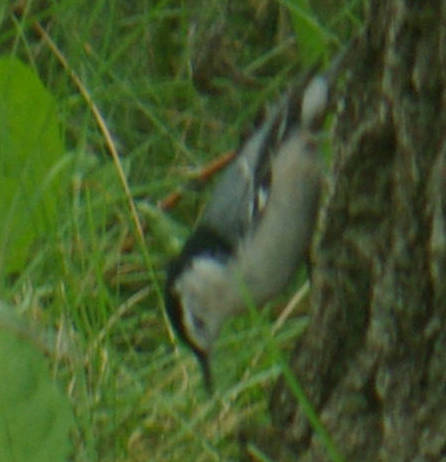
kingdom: Animalia
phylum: Chordata
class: Aves
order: Passeriformes
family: Sittidae
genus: Sitta
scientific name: Sitta carolinensis
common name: White-breasted nuthatch
